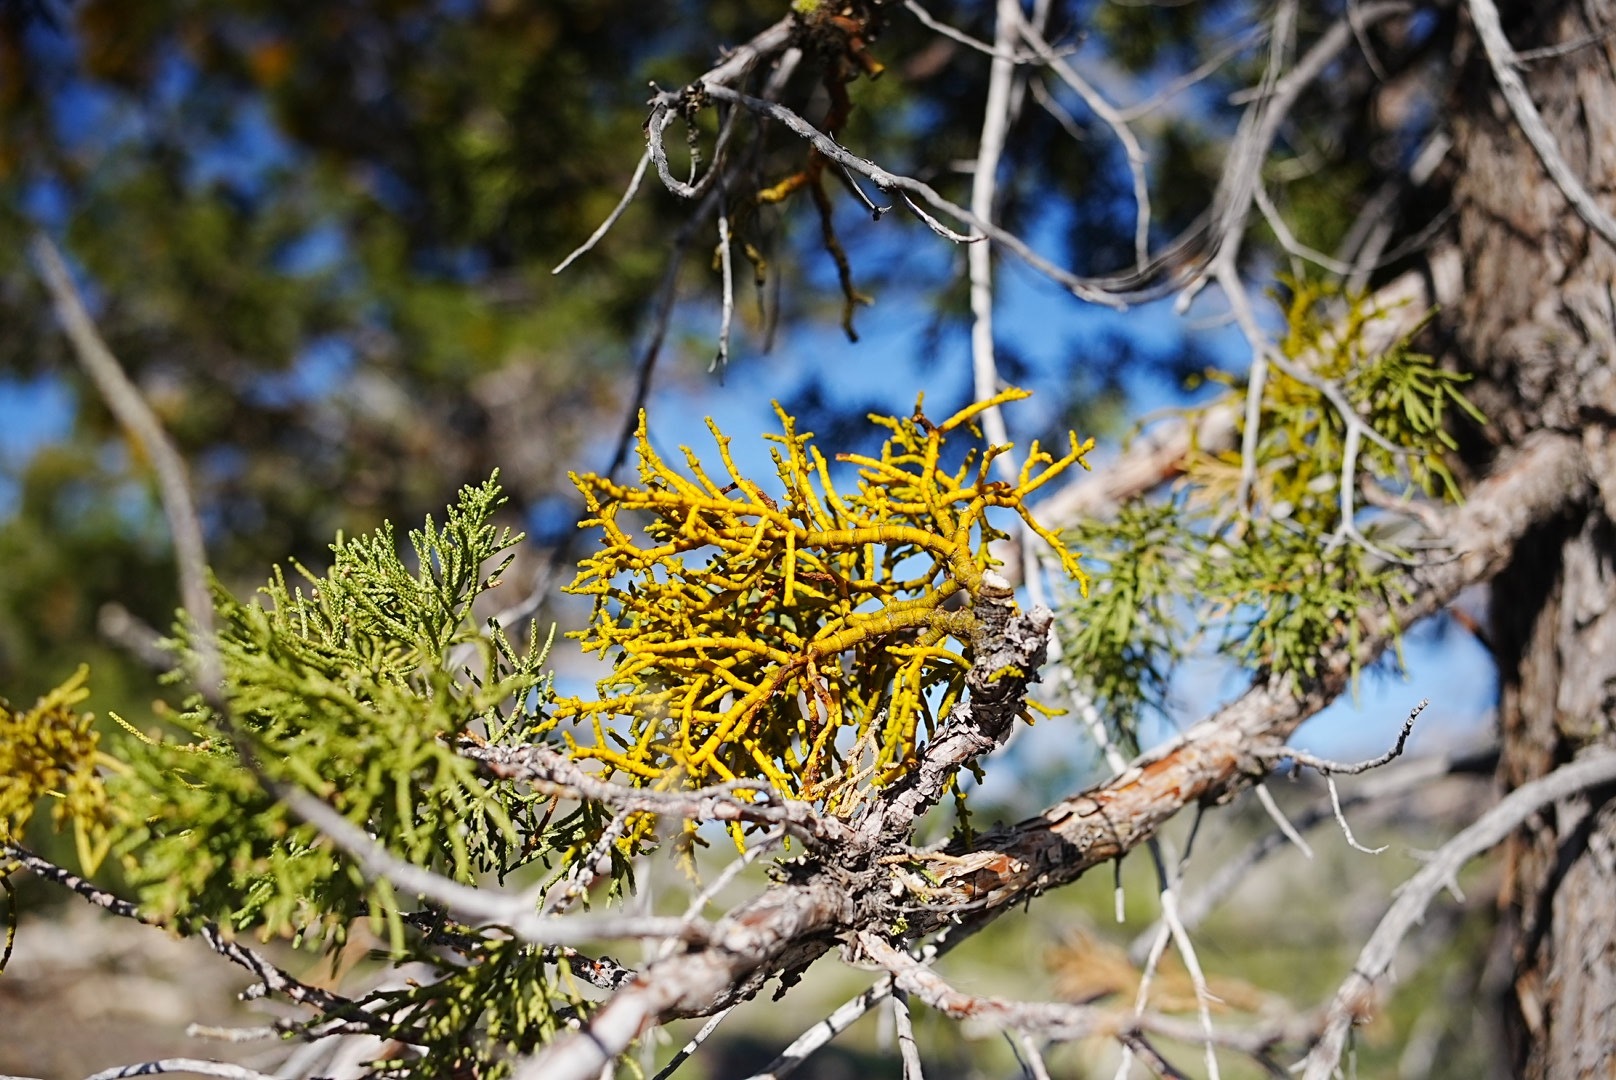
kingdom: Plantae
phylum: Tracheophyta
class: Magnoliopsida
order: Santalales
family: Viscaceae
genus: Phoradendron
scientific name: Phoradendron juniperinum
